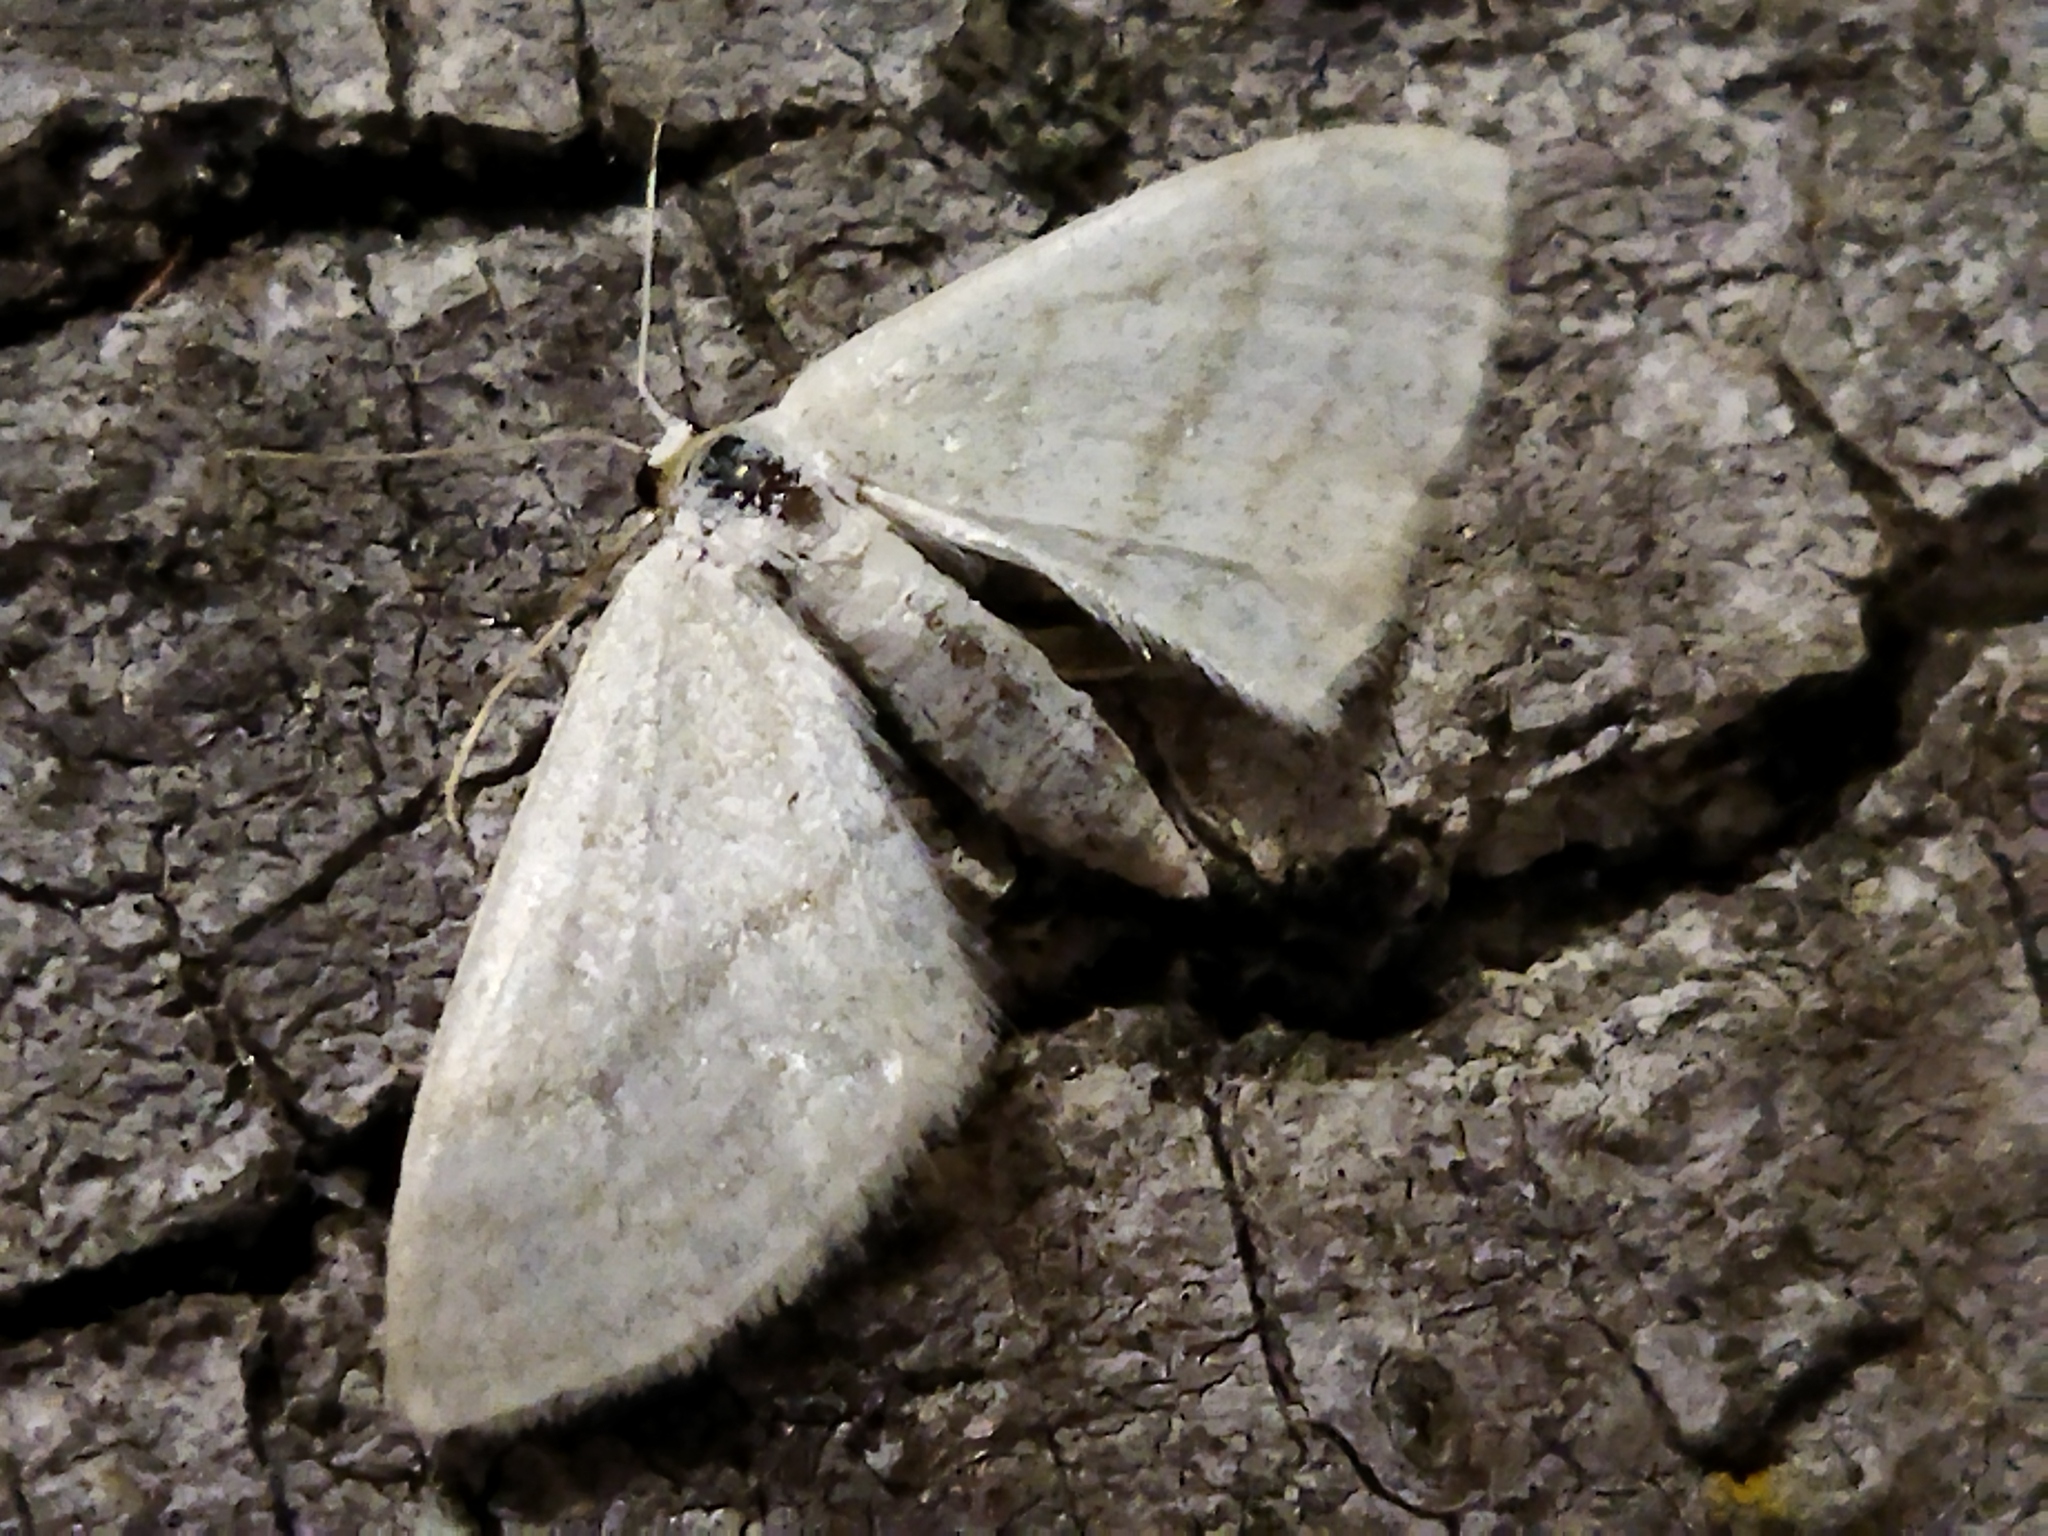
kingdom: Animalia
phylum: Arthropoda
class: Insecta
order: Lepidoptera
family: Geometridae
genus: Idaea
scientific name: Idaea subsericeata
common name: Satin wave
